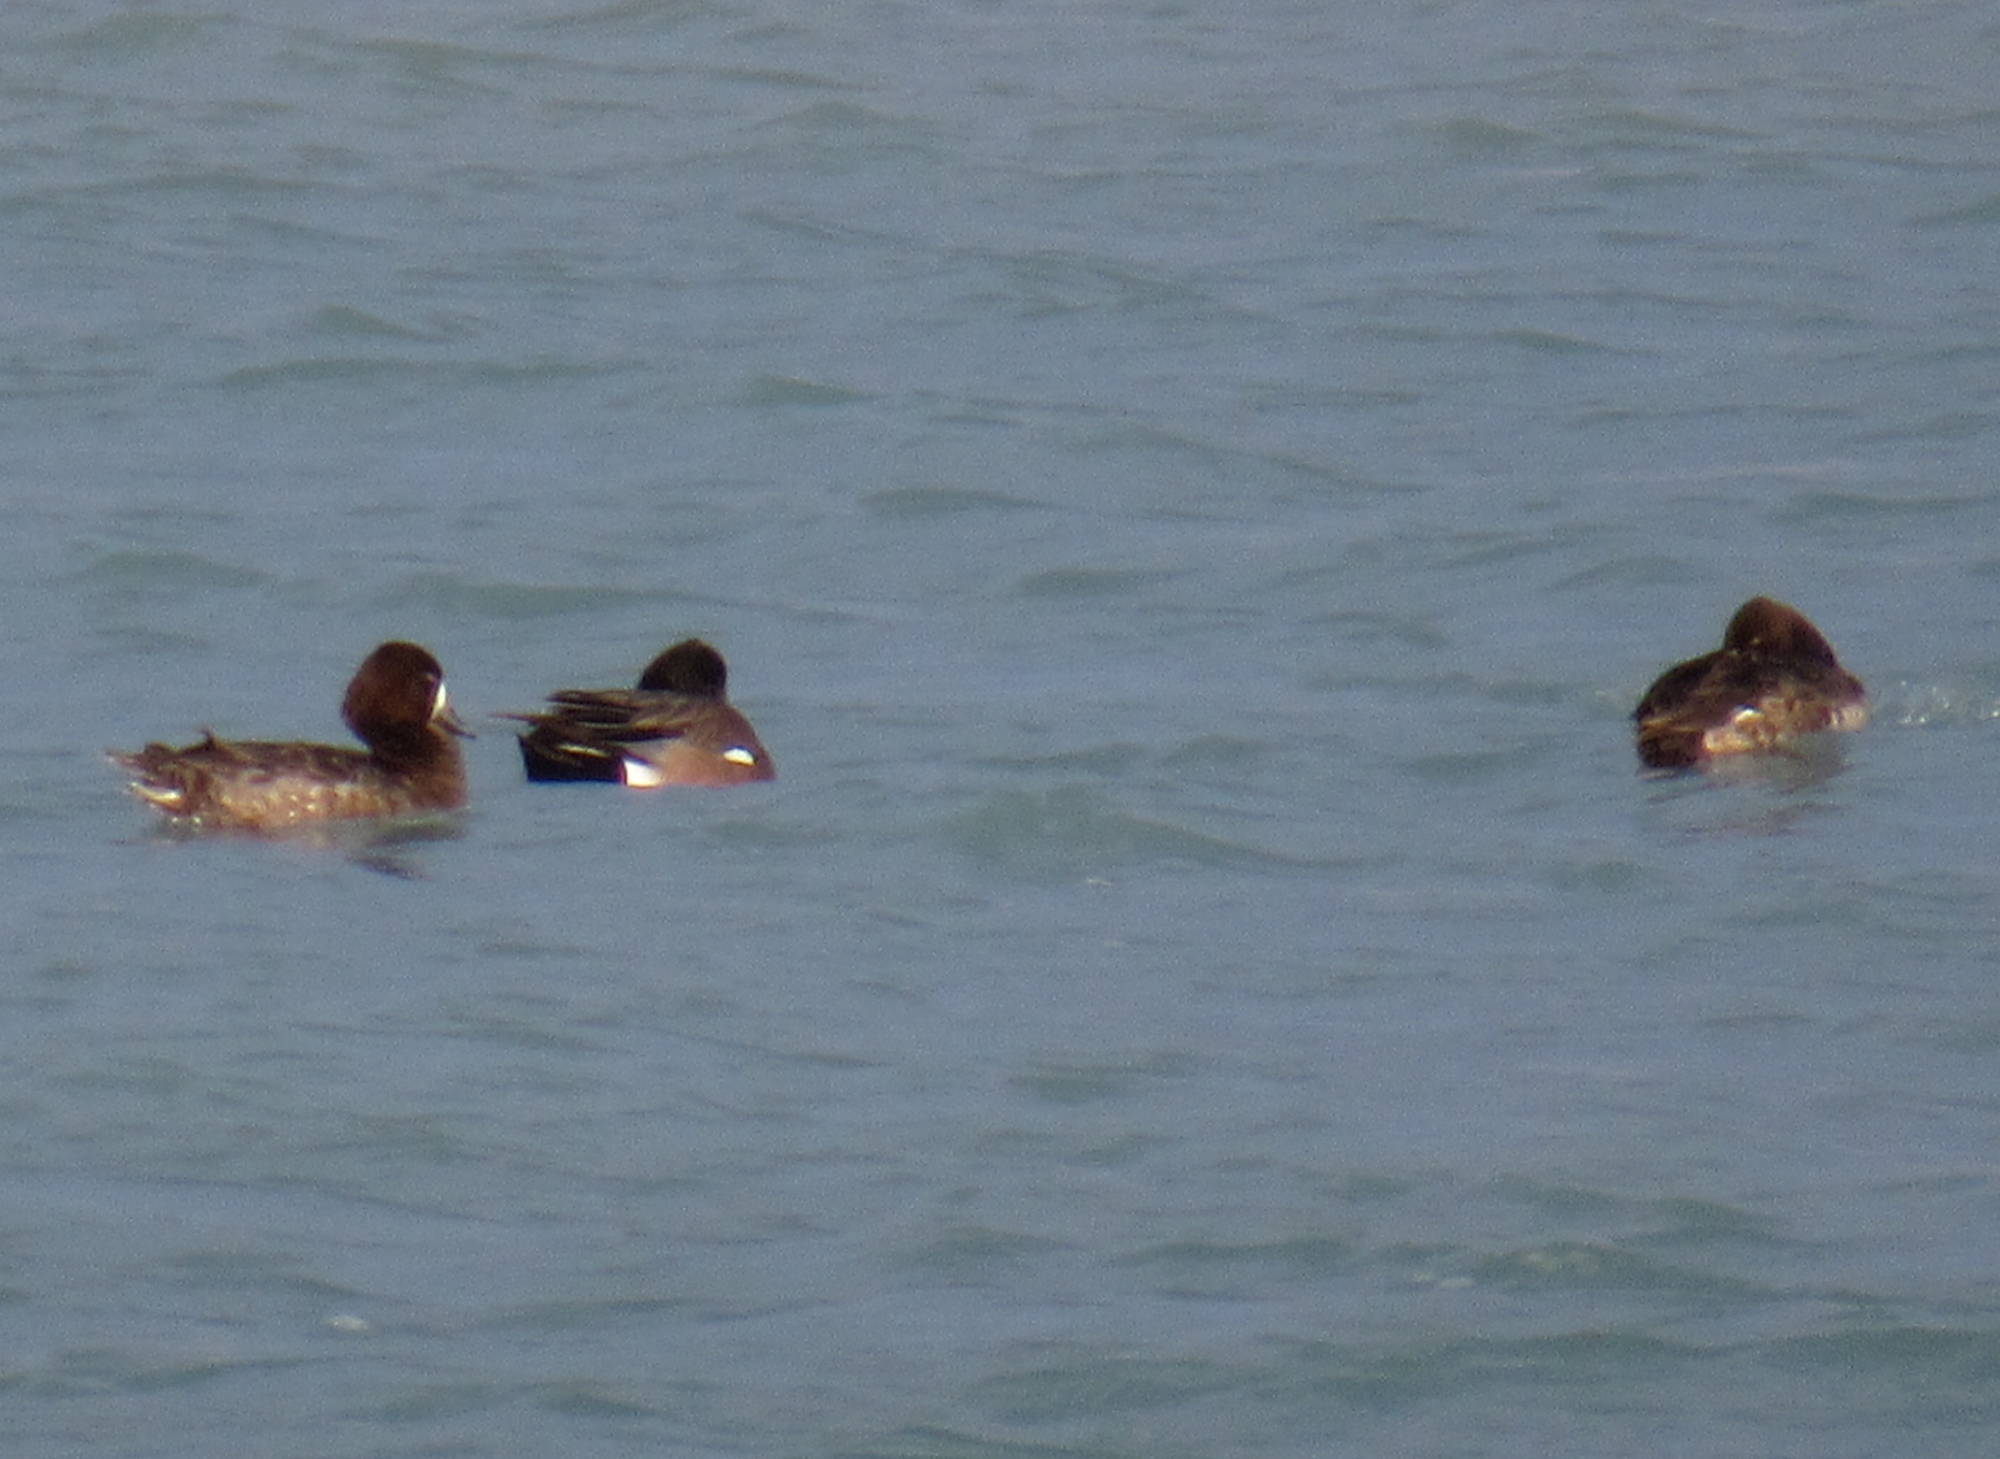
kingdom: Animalia
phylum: Chordata
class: Aves
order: Anseriformes
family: Anatidae
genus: Aythya
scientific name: Aythya affinis
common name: Lesser scaup
